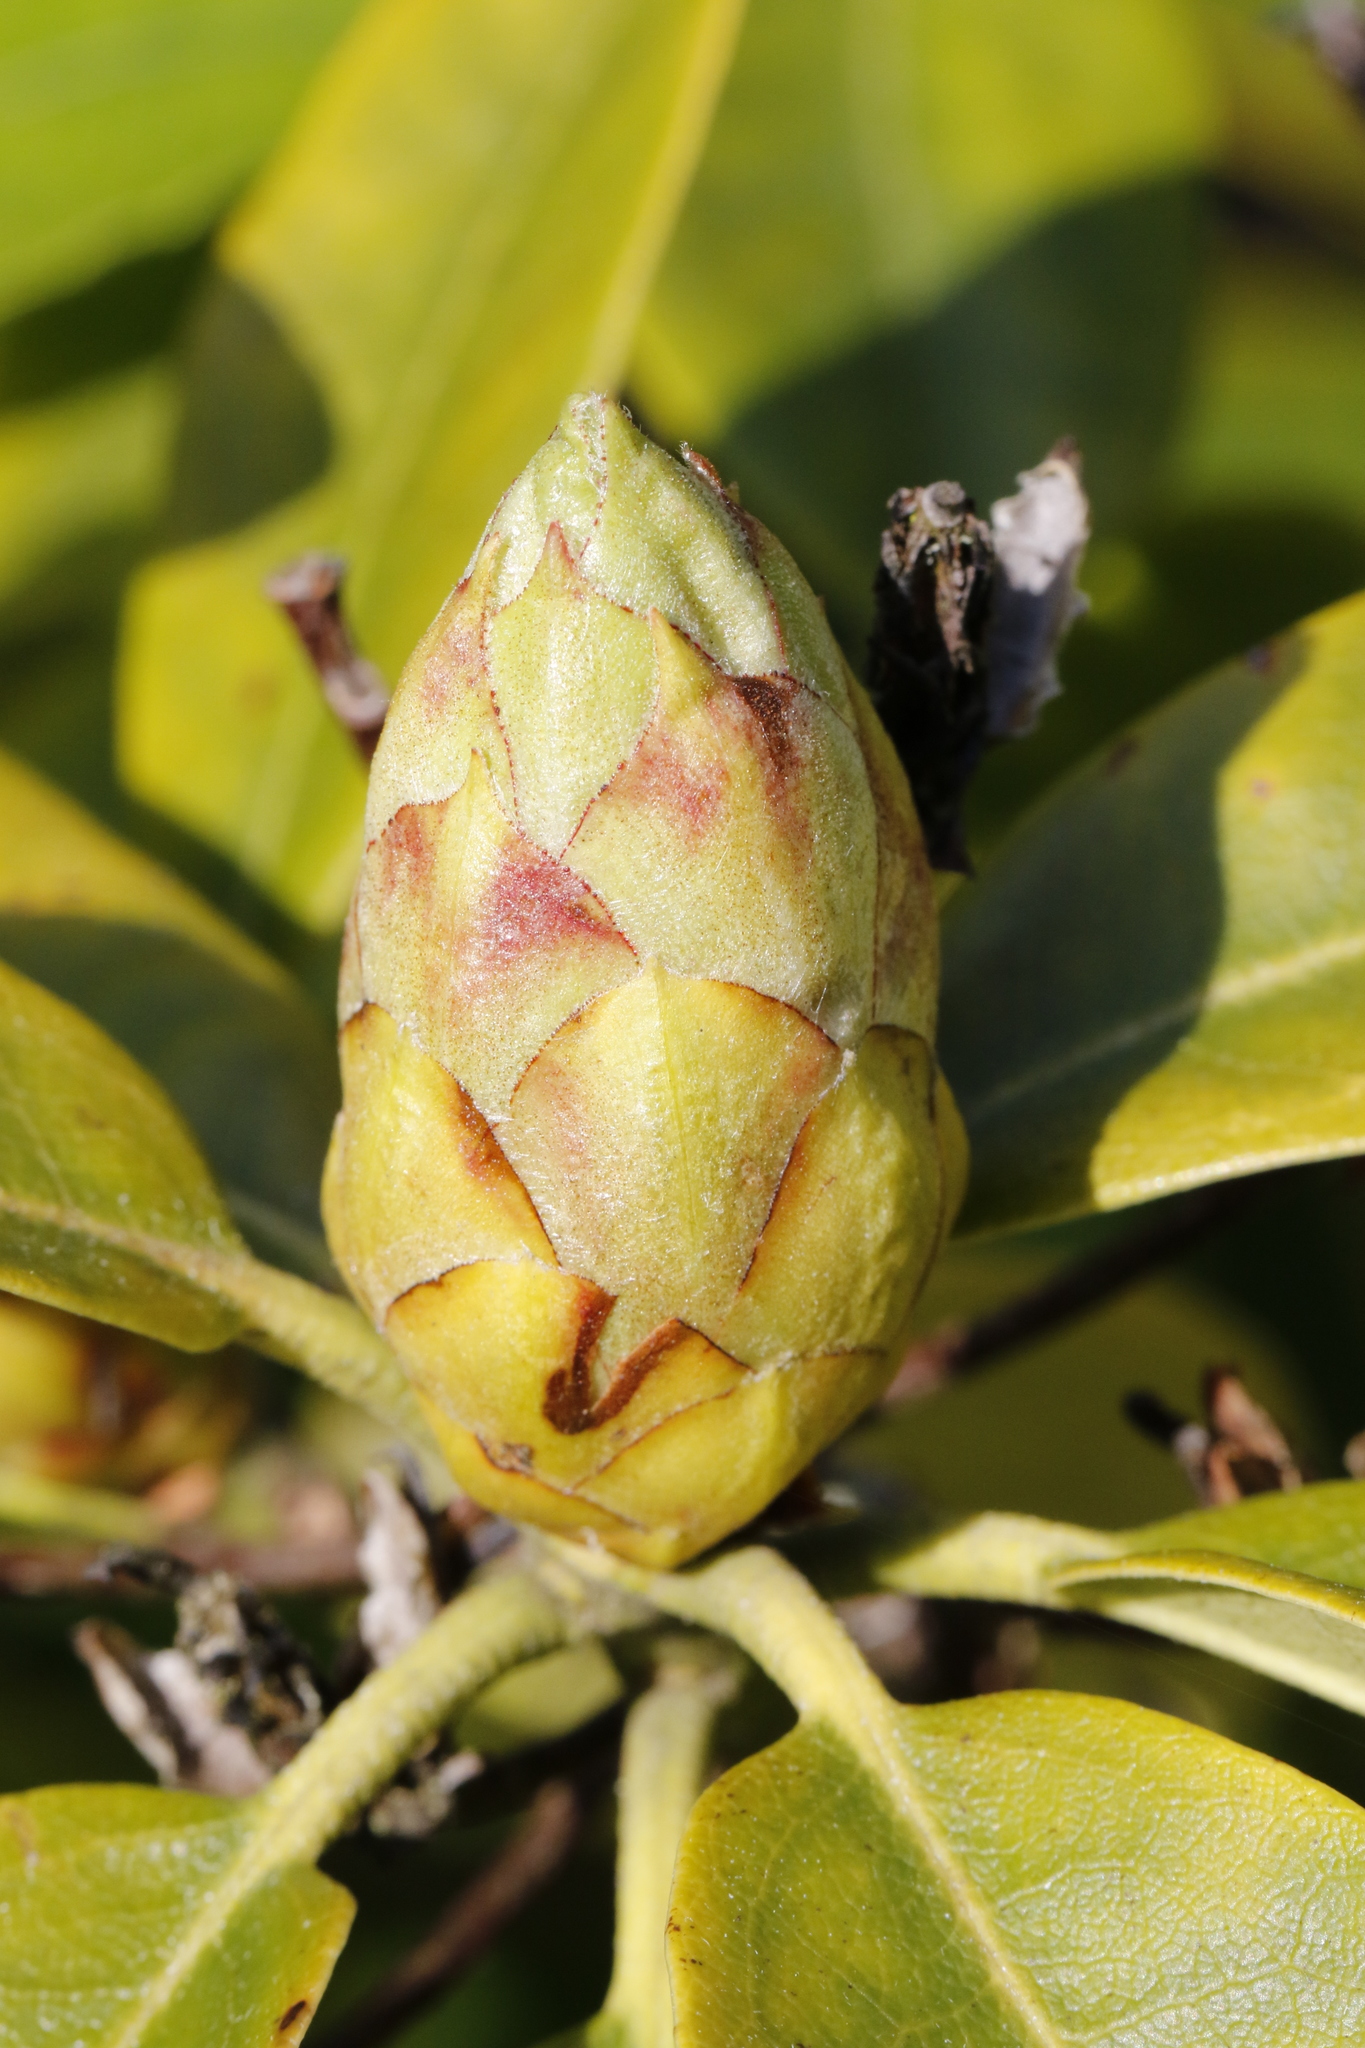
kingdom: Plantae
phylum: Tracheophyta
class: Magnoliopsida
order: Ericales
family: Ericaceae
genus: Rhododendron
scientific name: Rhododendron ponticum
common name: Rhododendron
